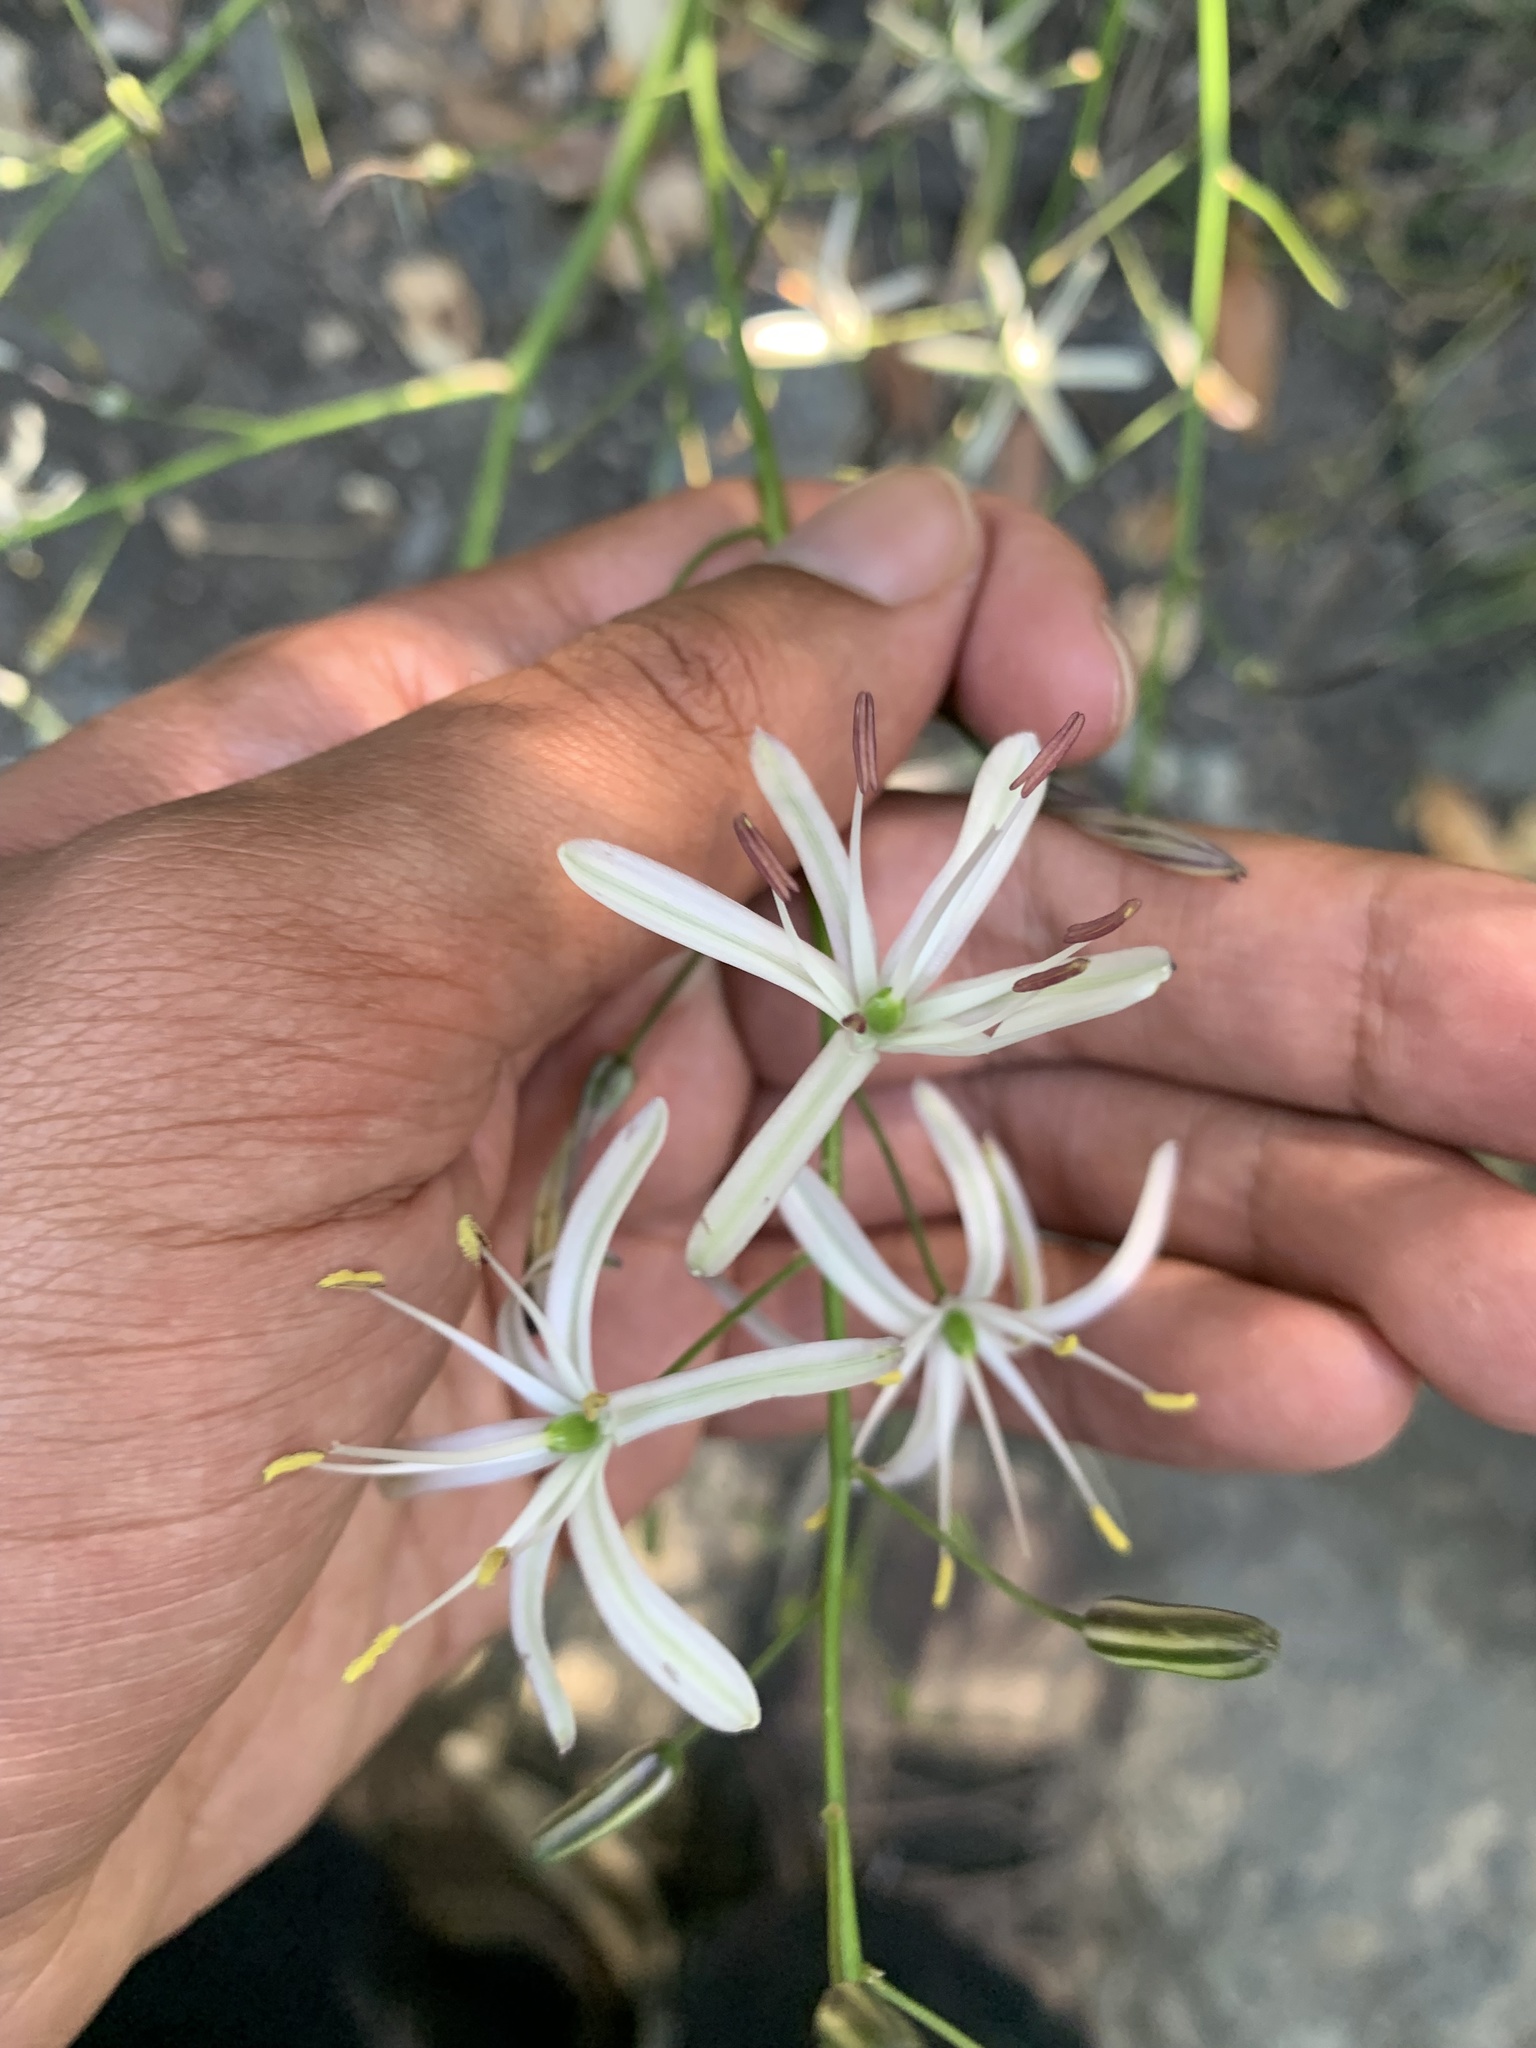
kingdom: Plantae
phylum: Tracheophyta
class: Liliopsida
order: Asparagales
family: Asparagaceae
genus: Chlorogalum
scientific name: Chlorogalum pomeridianum
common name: Amole
